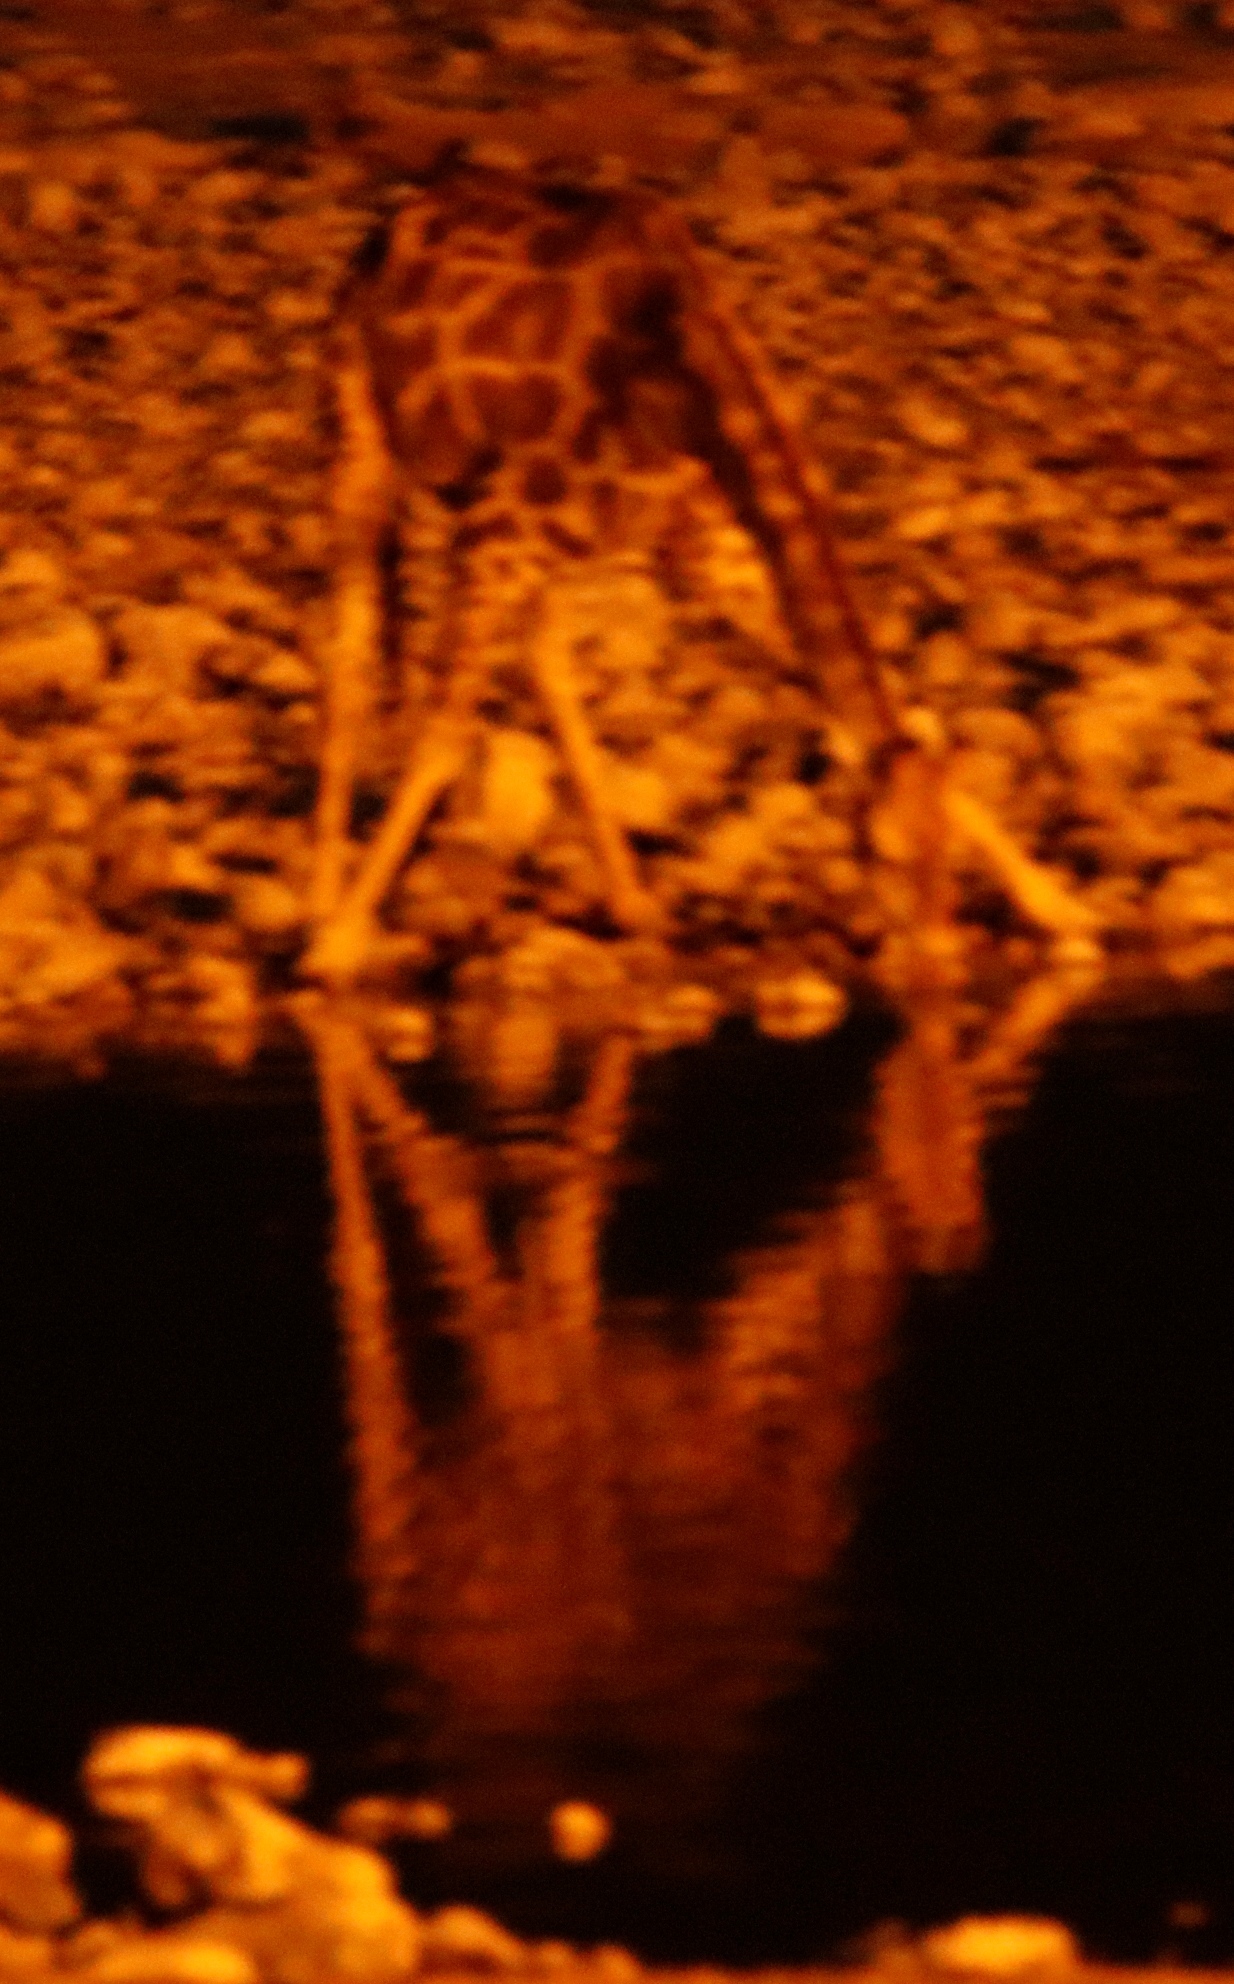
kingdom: Animalia
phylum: Chordata
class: Mammalia
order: Artiodactyla
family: Giraffidae
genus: Giraffa
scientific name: Giraffa giraffa
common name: Southern giraffe
